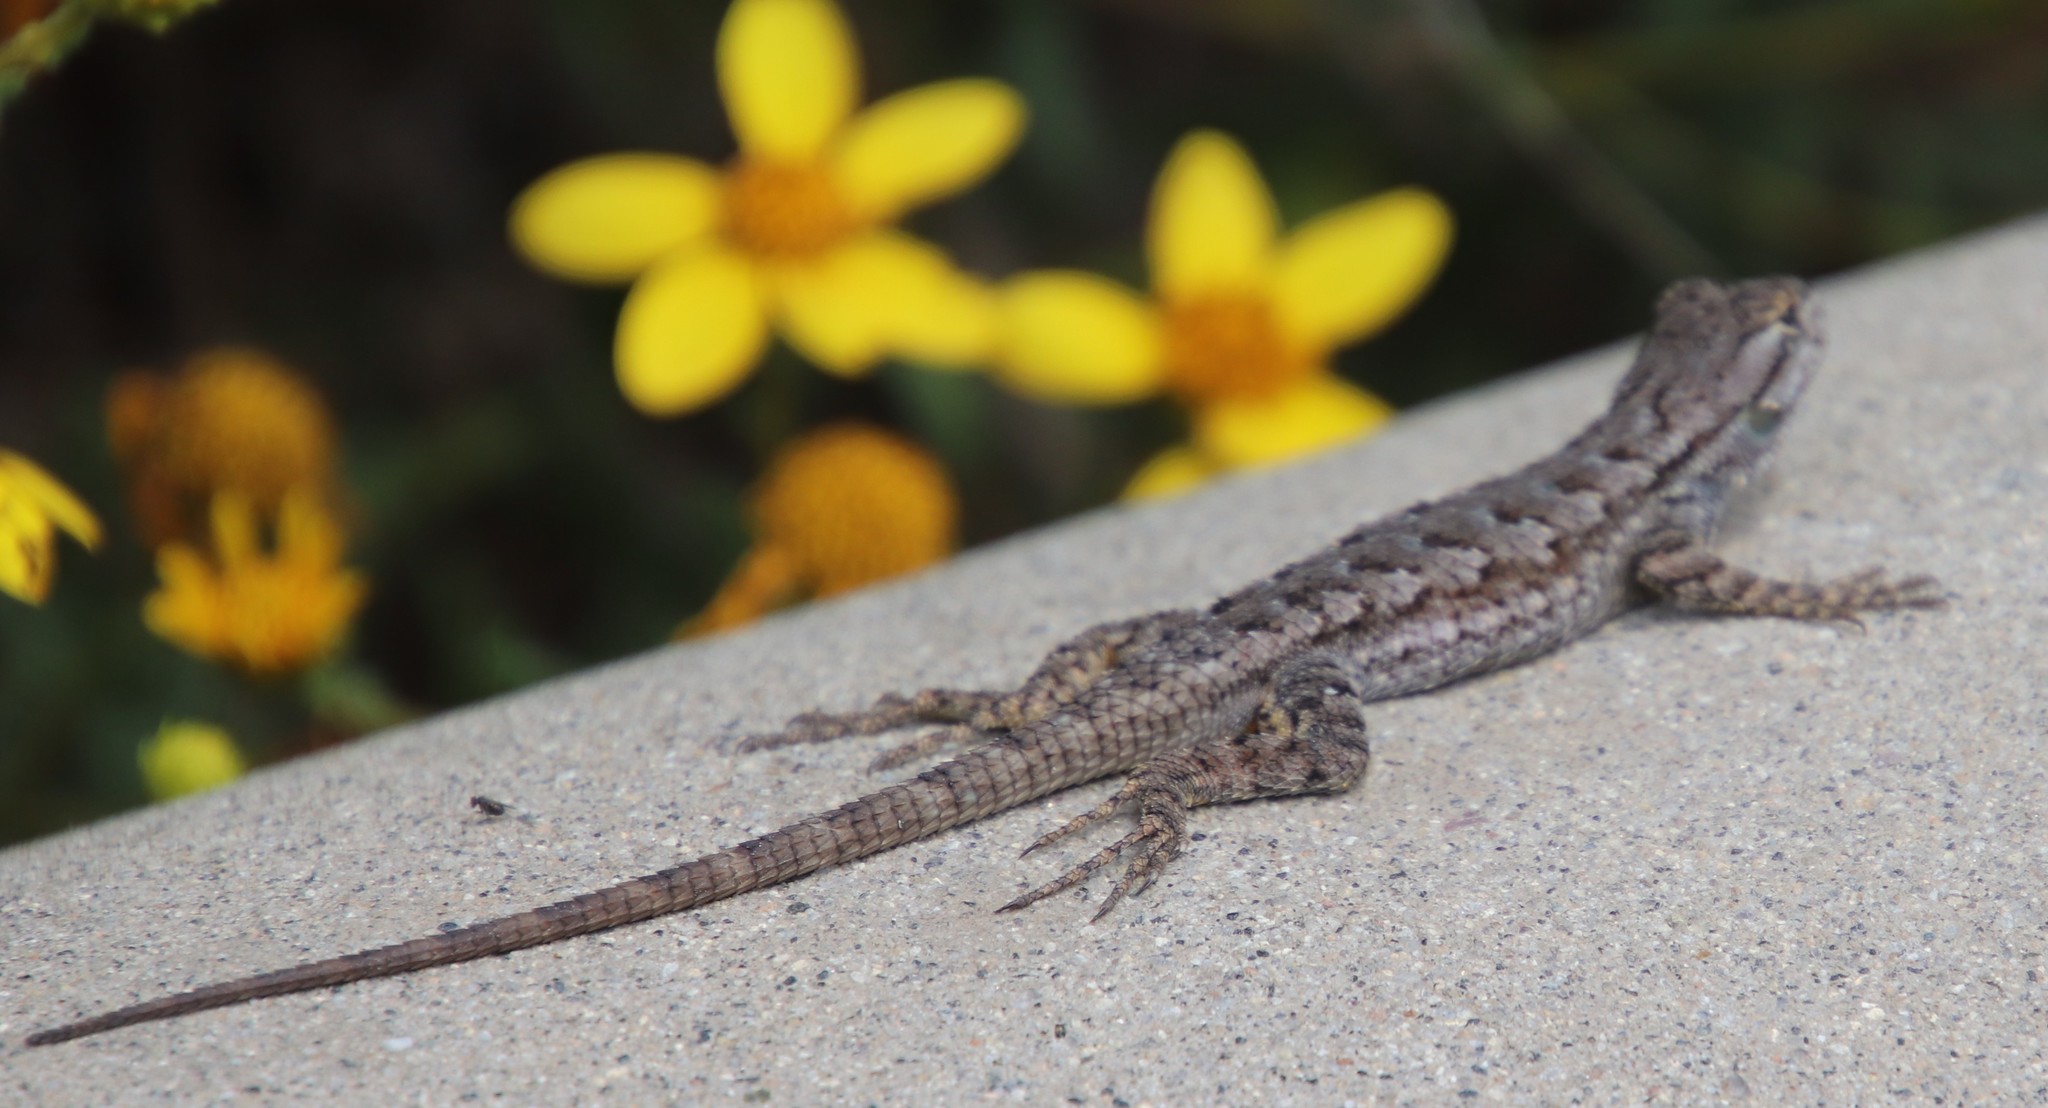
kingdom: Animalia
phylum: Chordata
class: Squamata
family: Phrynosomatidae
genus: Sceloporus
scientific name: Sceloporus occidentalis
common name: Western fence lizard
